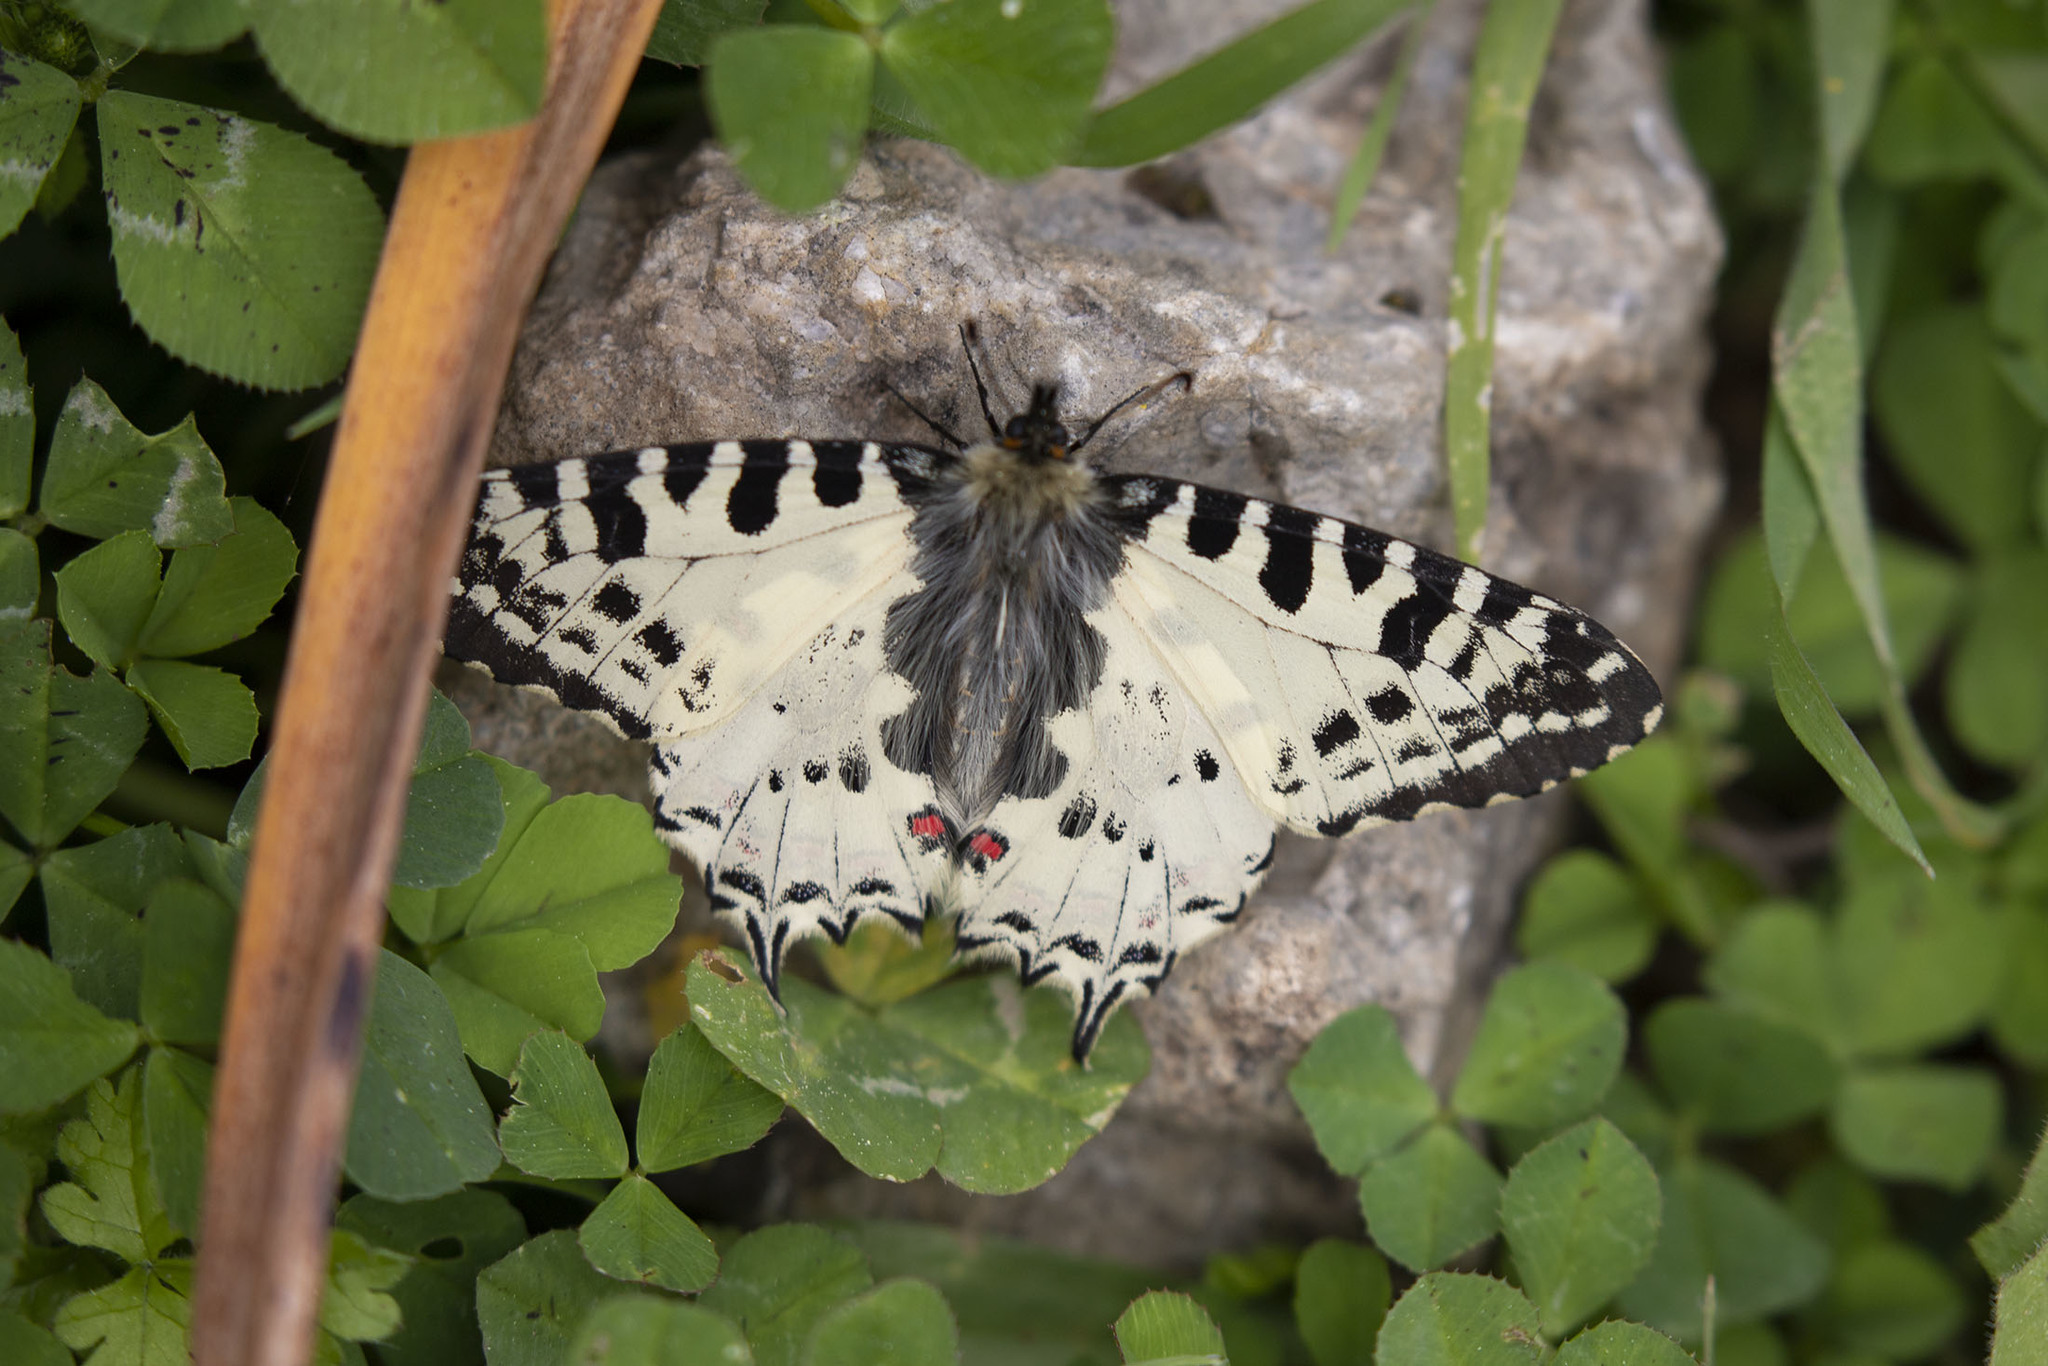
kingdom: Animalia
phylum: Arthropoda
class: Insecta
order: Lepidoptera
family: Papilionidae
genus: Zerynthia
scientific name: Zerynthia cerisy
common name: Eastern festoon
